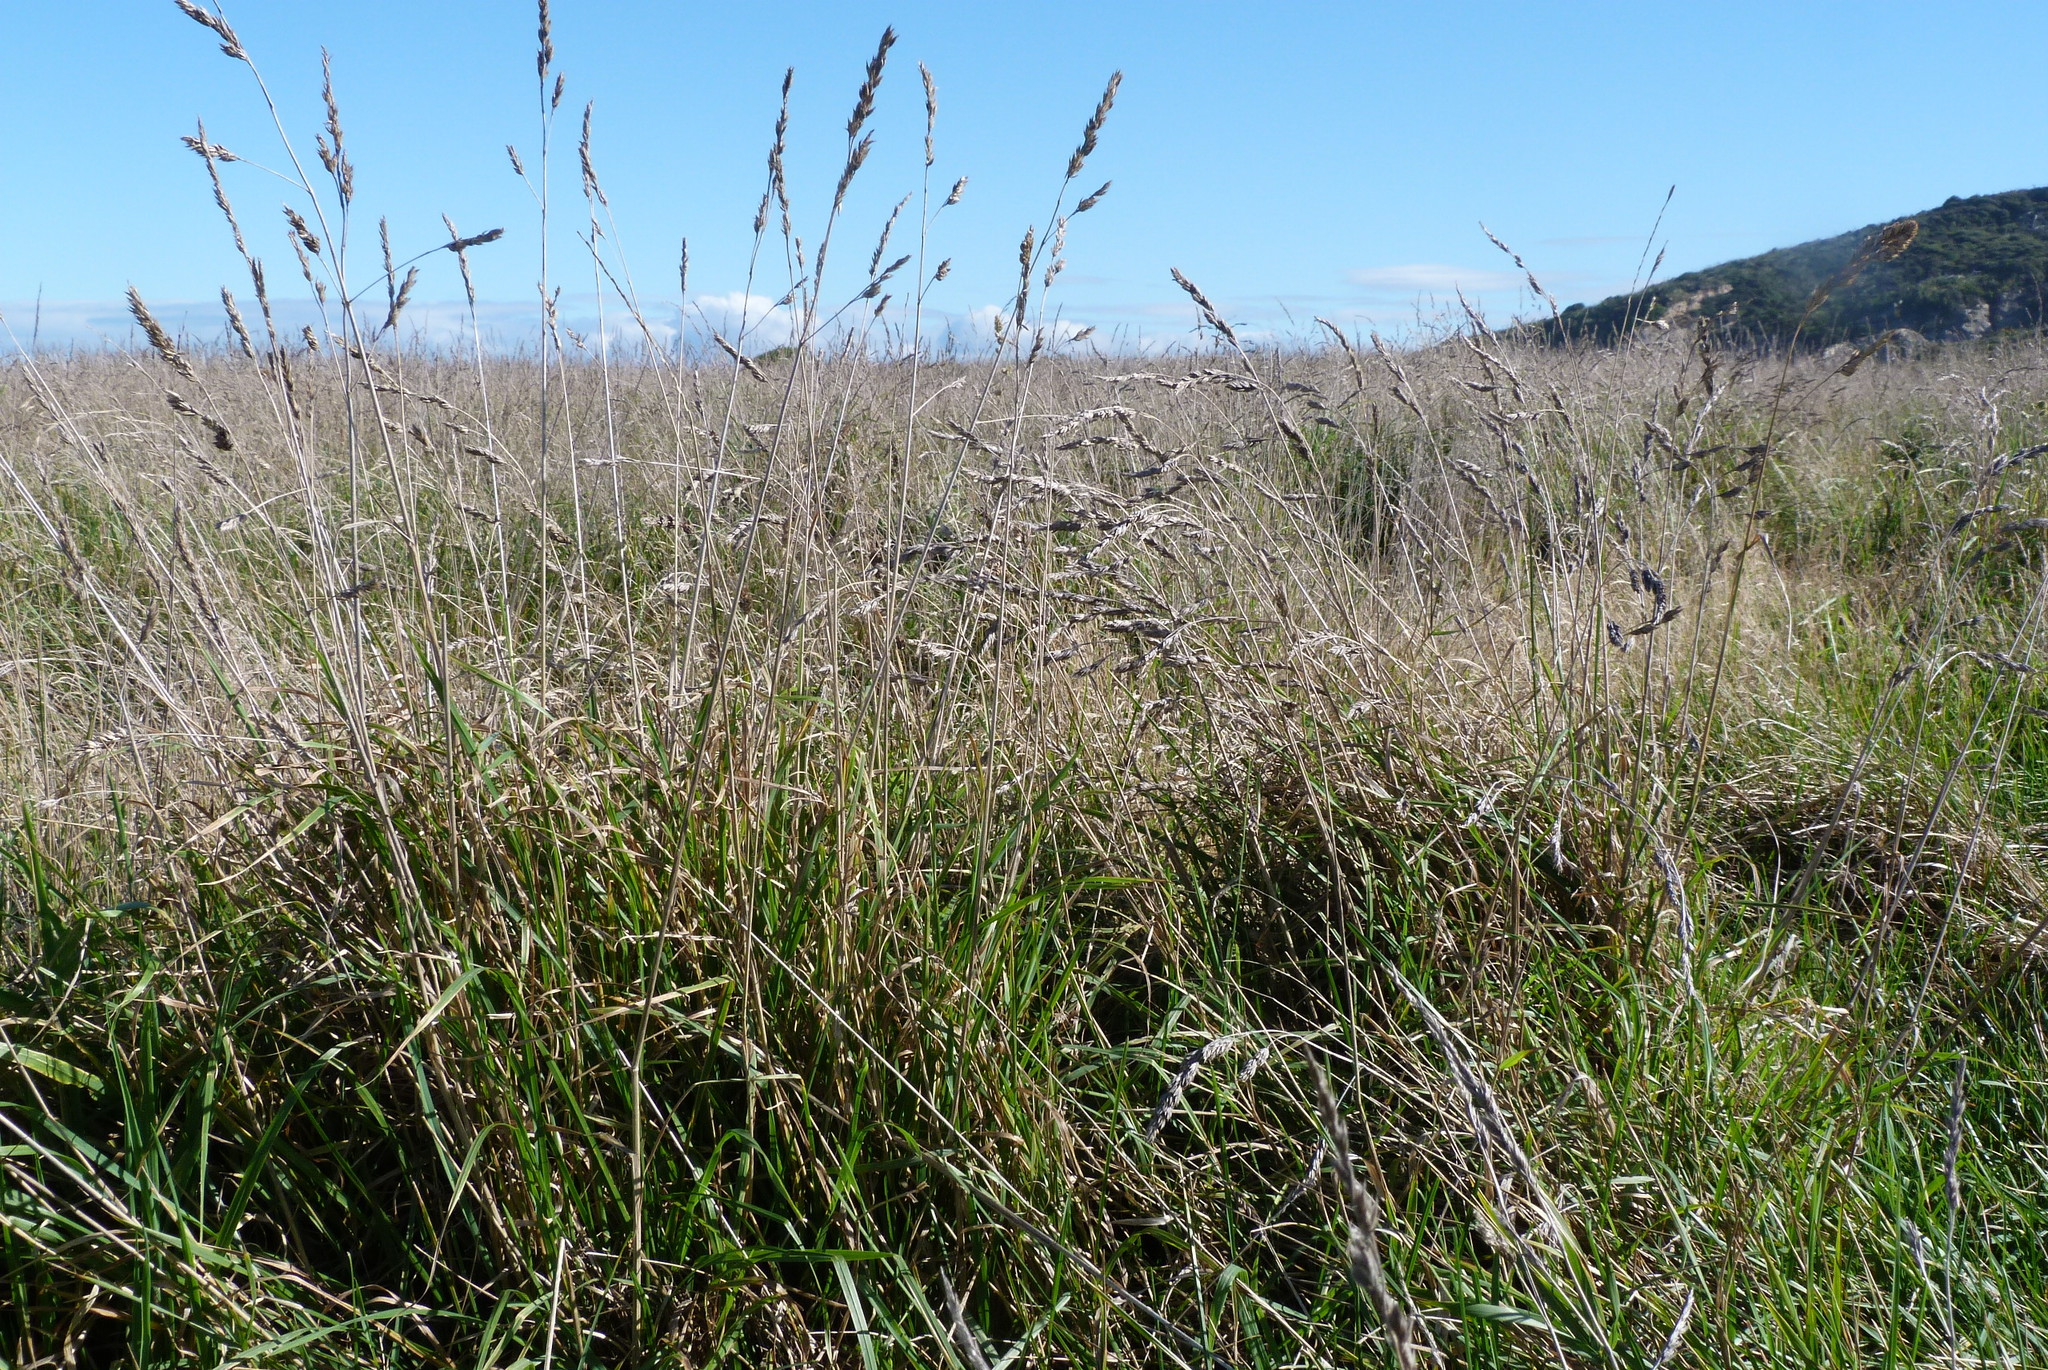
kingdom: Plantae
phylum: Tracheophyta
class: Liliopsida
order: Poales
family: Poaceae
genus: Dactylis
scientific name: Dactylis glomerata
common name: Orchardgrass
